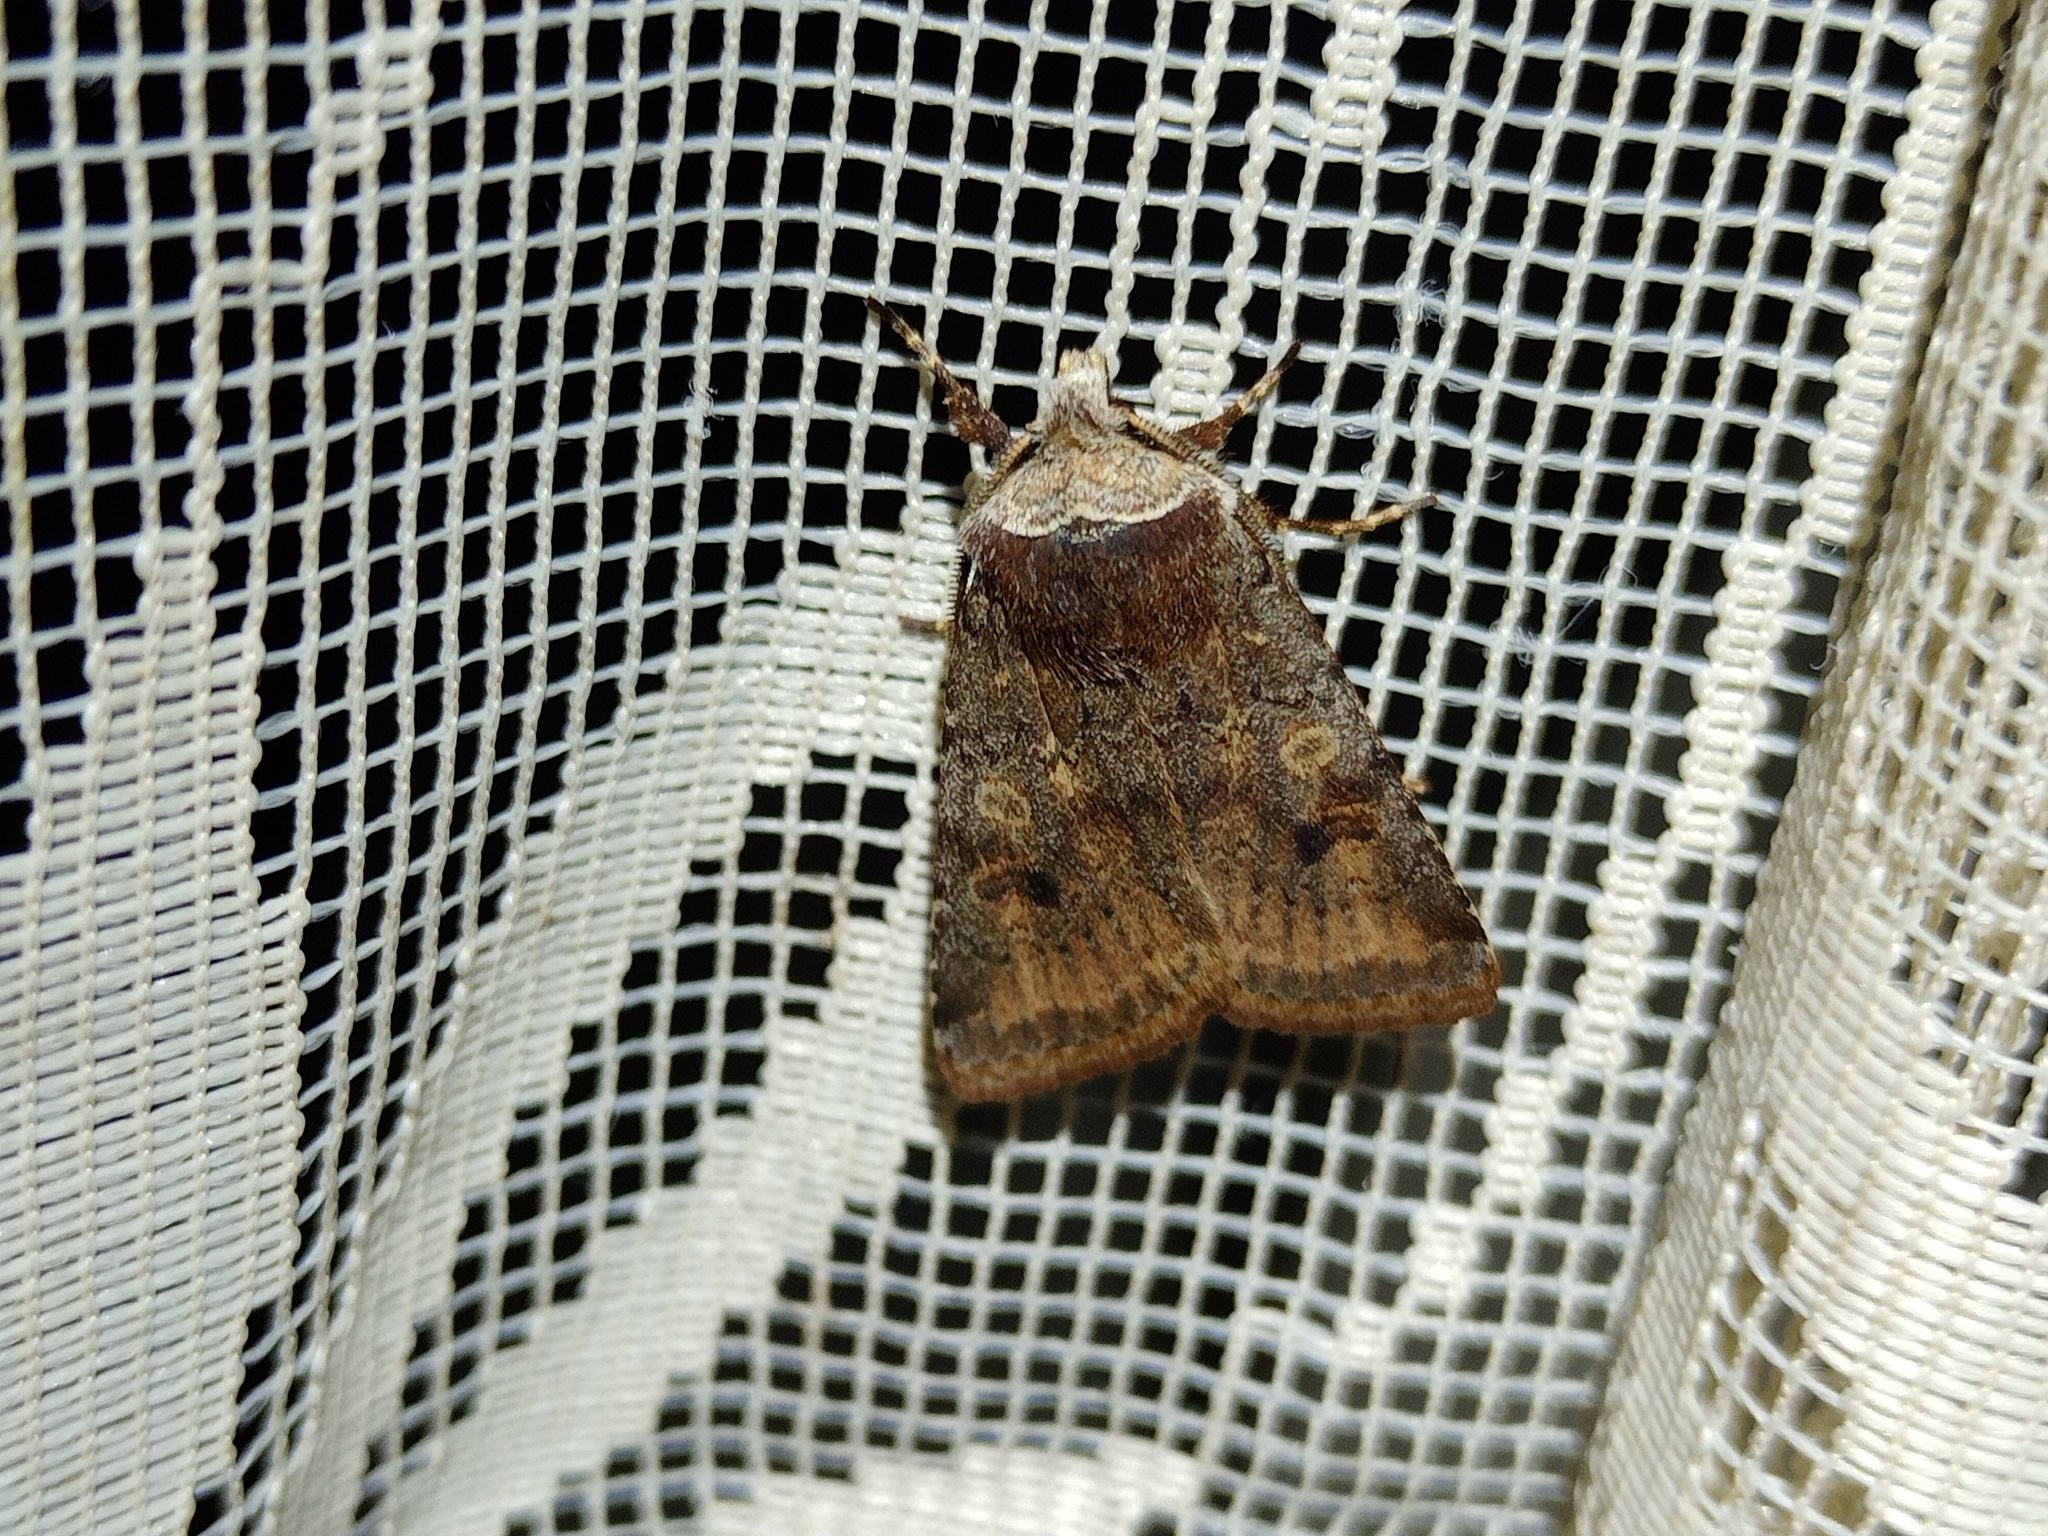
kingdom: Animalia
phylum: Arthropoda
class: Insecta
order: Lepidoptera
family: Noctuidae
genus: Cerastis
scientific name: Cerastis faceta
